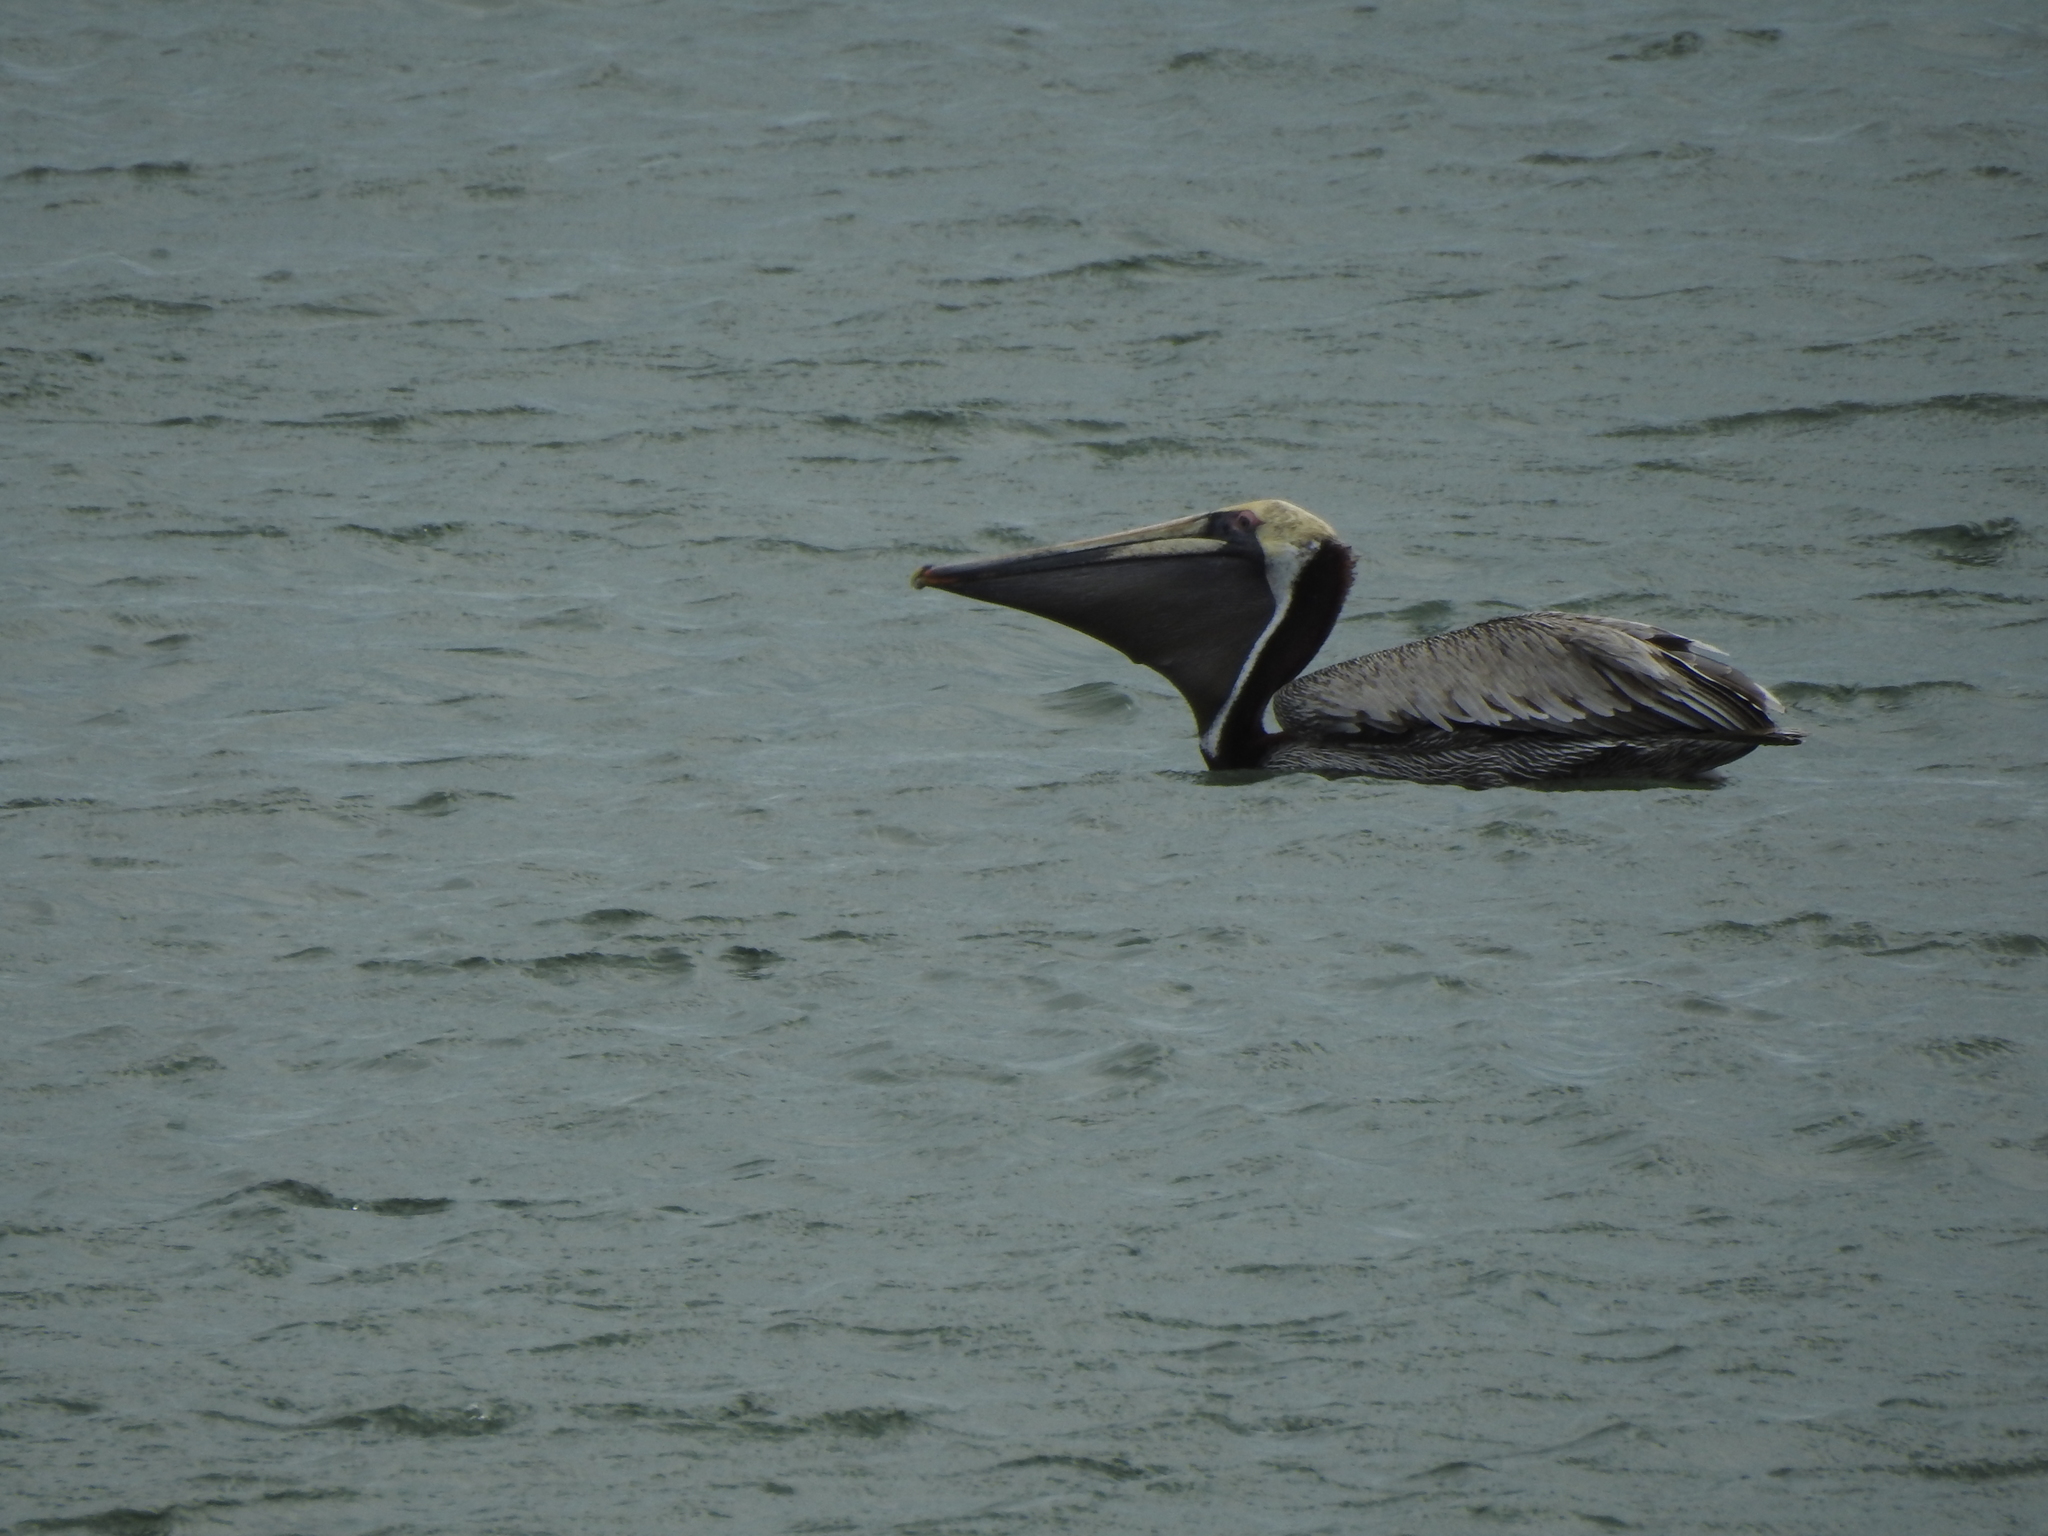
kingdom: Animalia
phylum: Chordata
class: Aves
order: Pelecaniformes
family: Pelecanidae
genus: Pelecanus
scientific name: Pelecanus occidentalis
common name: Brown pelican
